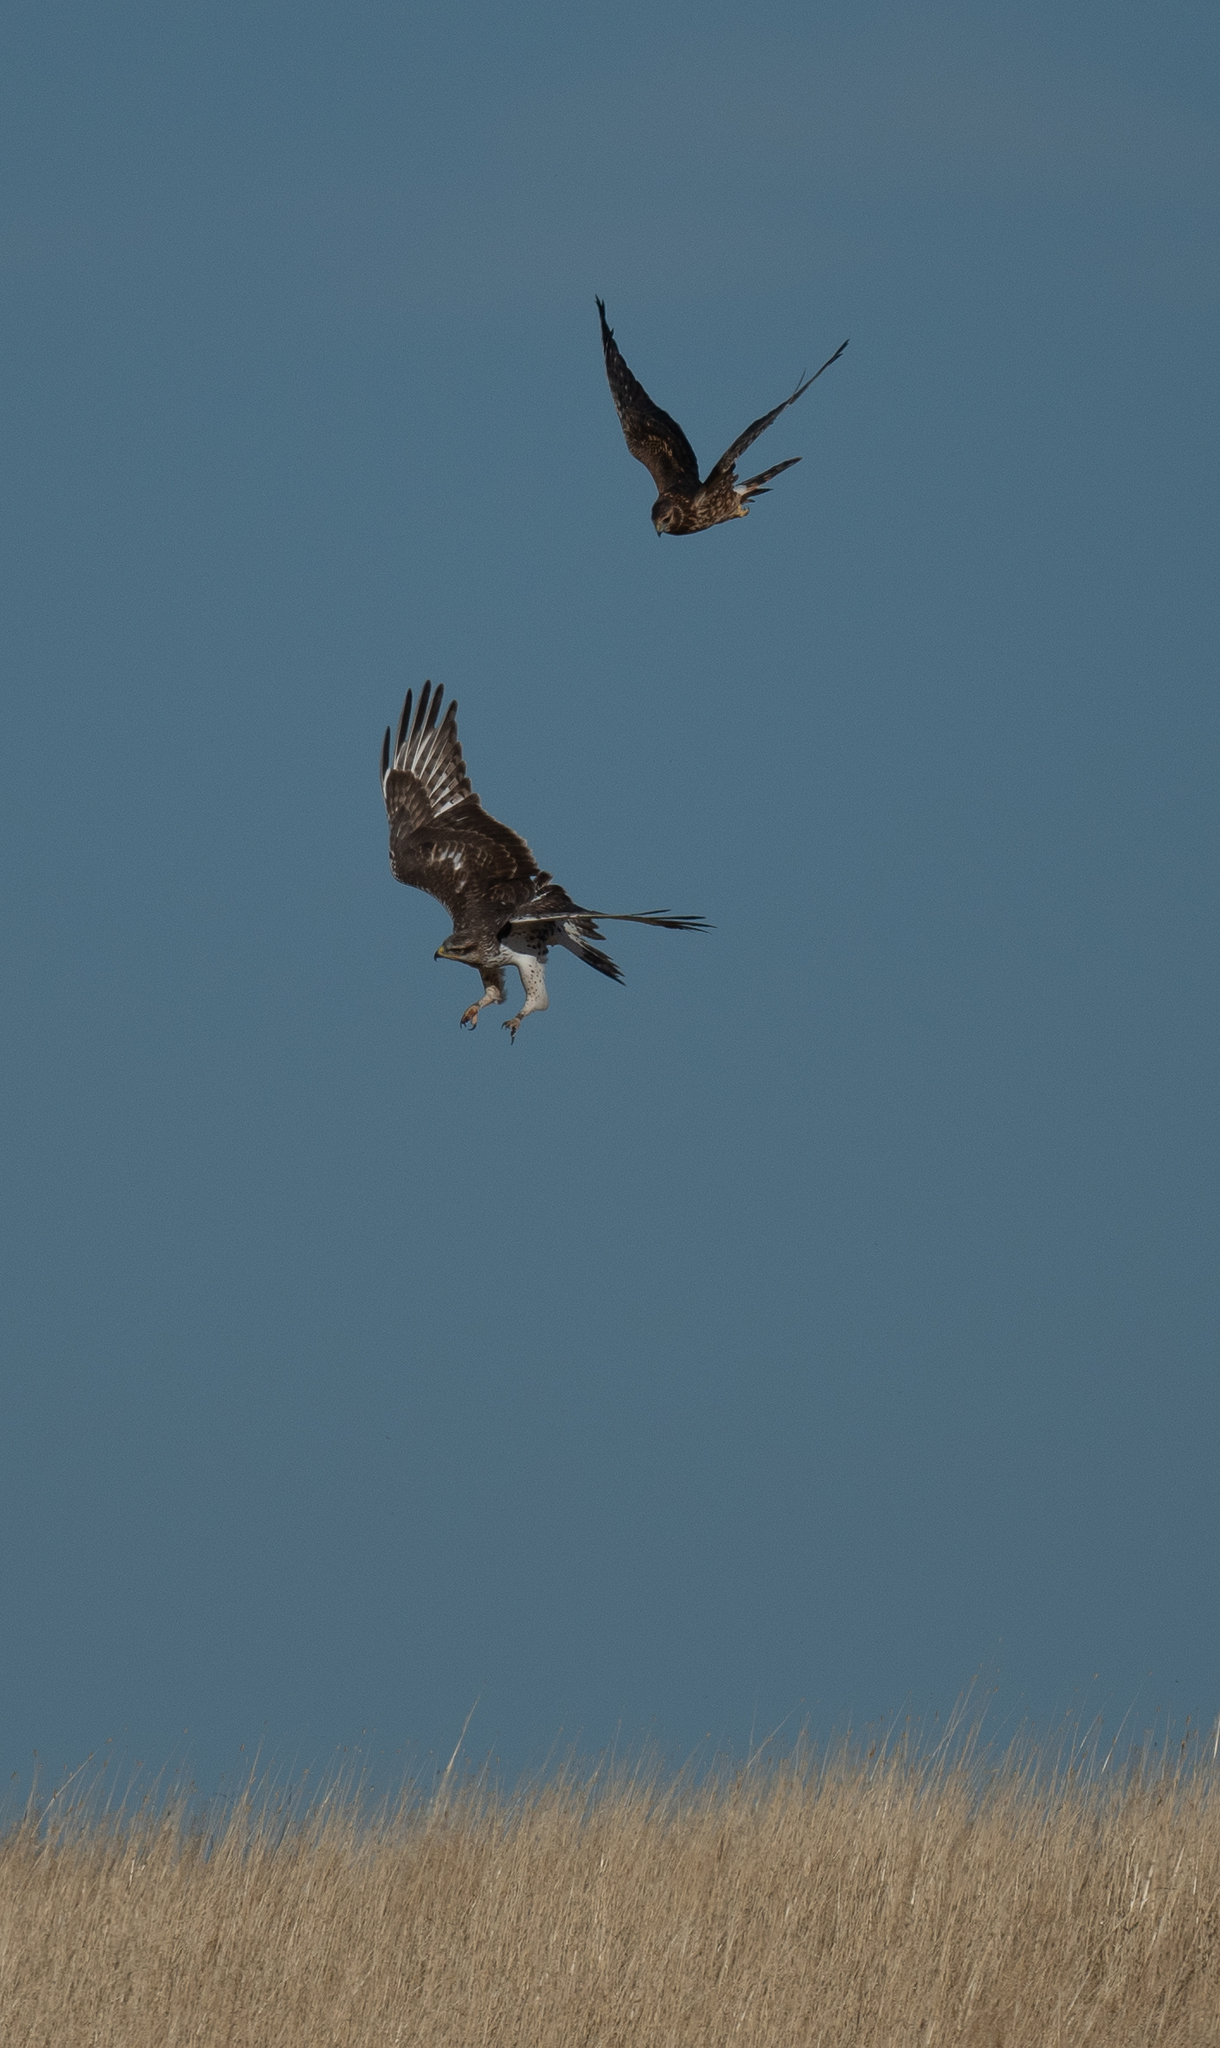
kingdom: Animalia
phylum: Chordata
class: Aves
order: Accipitriformes
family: Accipitridae
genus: Buteo
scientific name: Buteo regalis
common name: Ferruginous hawk
